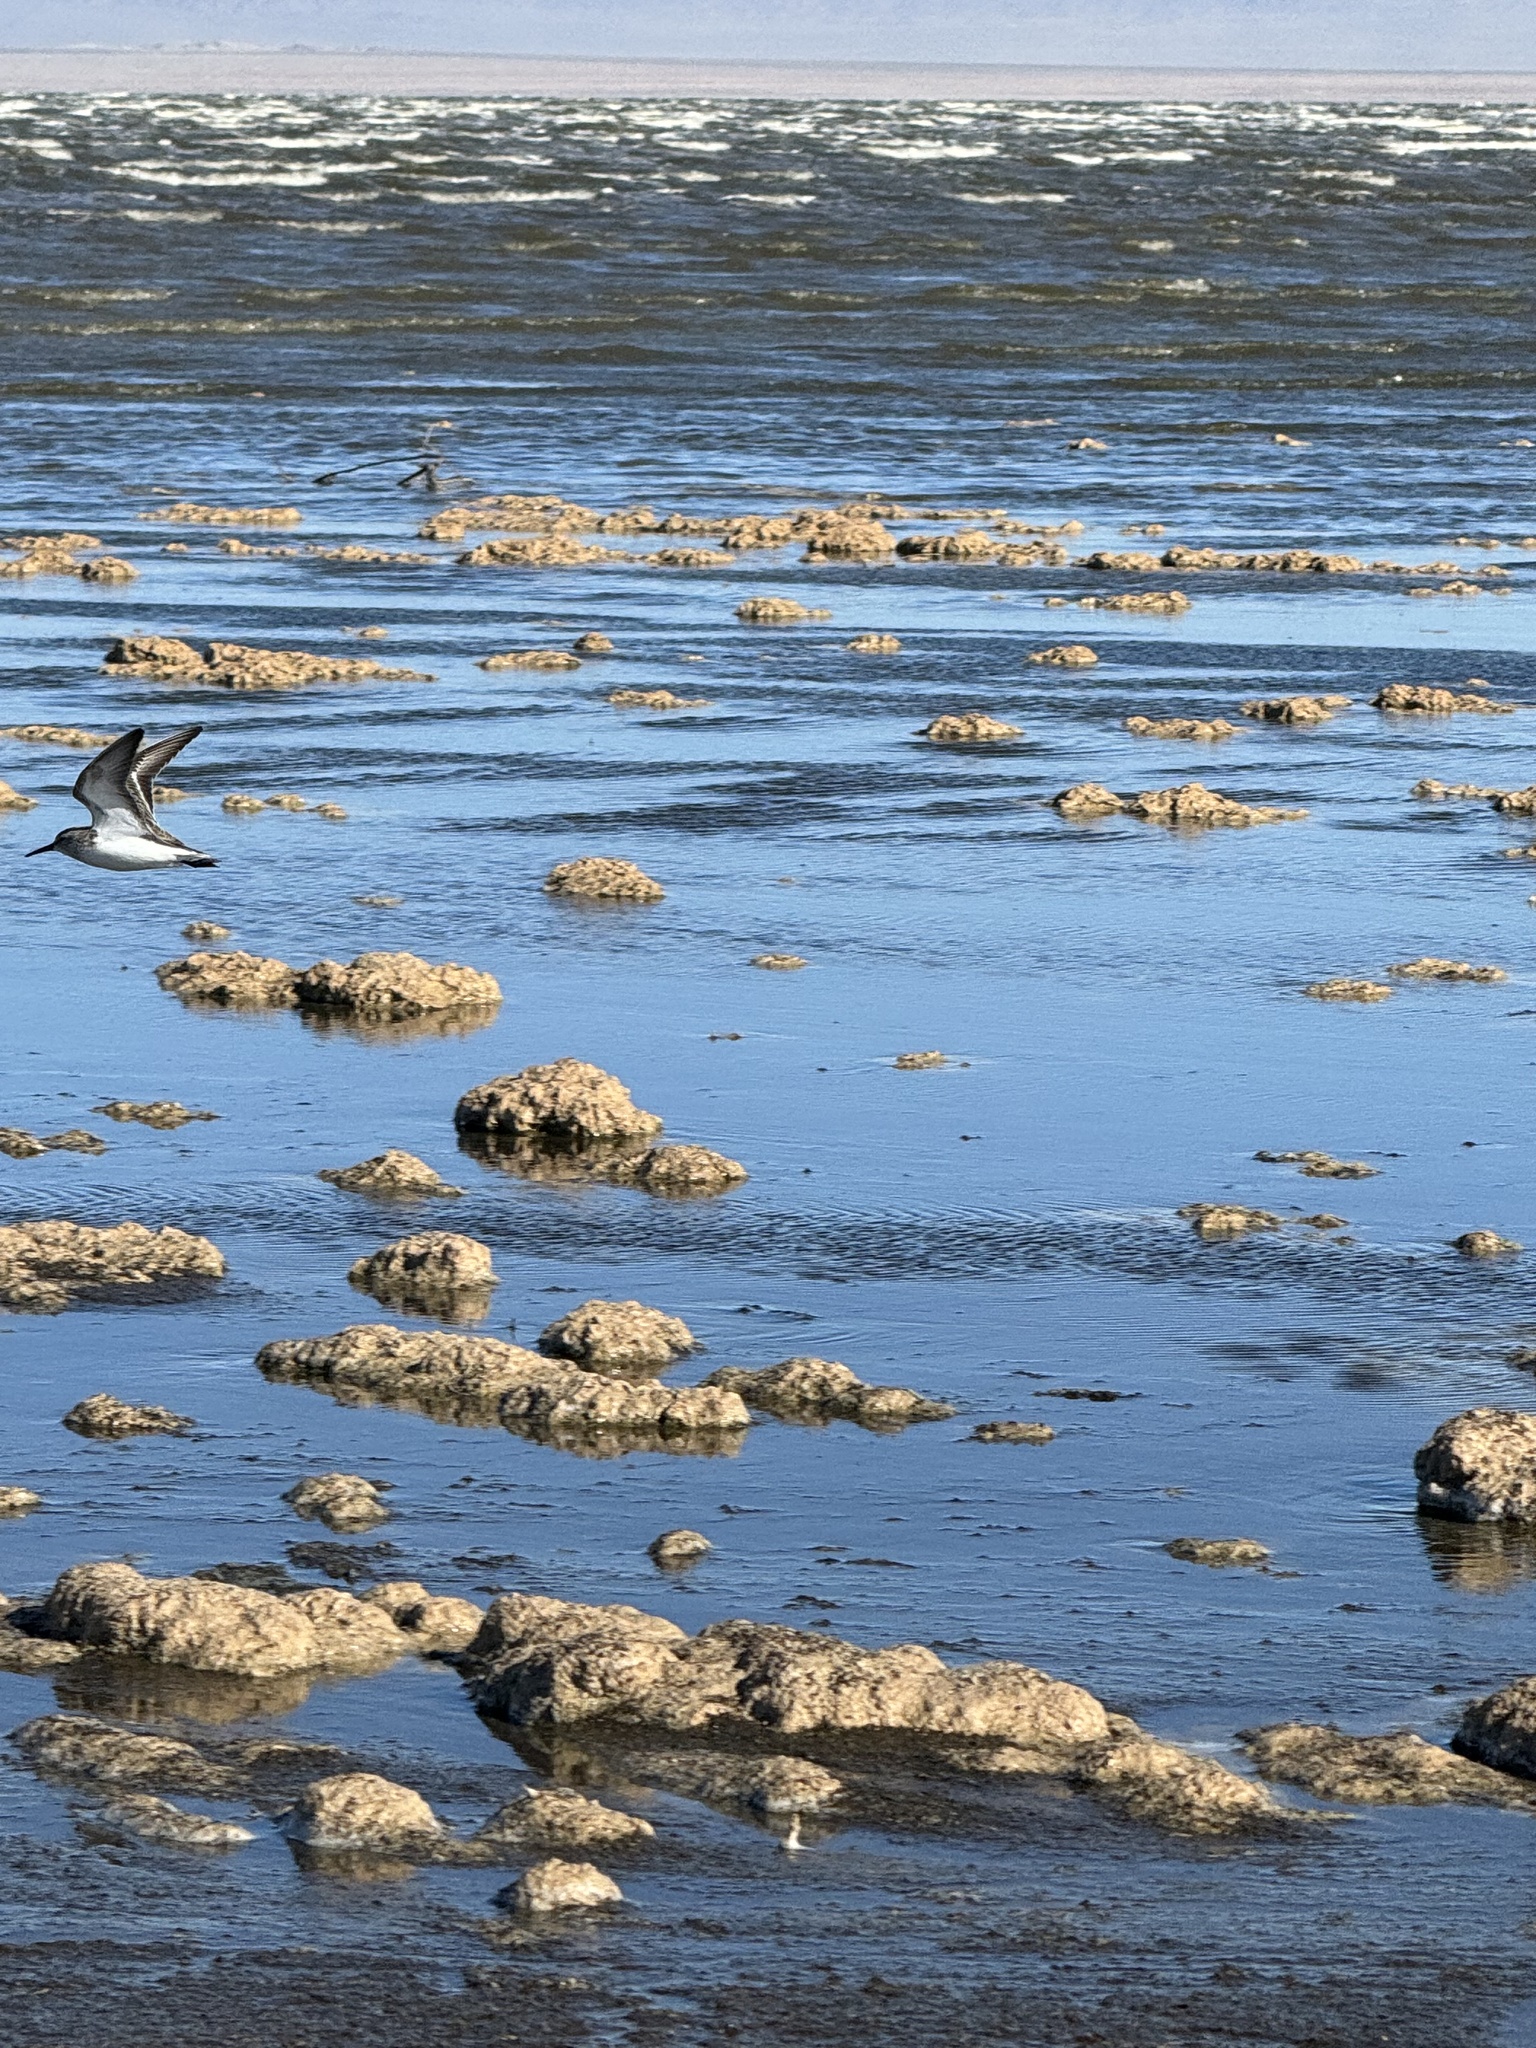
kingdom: Animalia
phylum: Chordata
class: Aves
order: Charadriiformes
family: Scolopacidae
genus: Calidris
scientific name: Calidris
